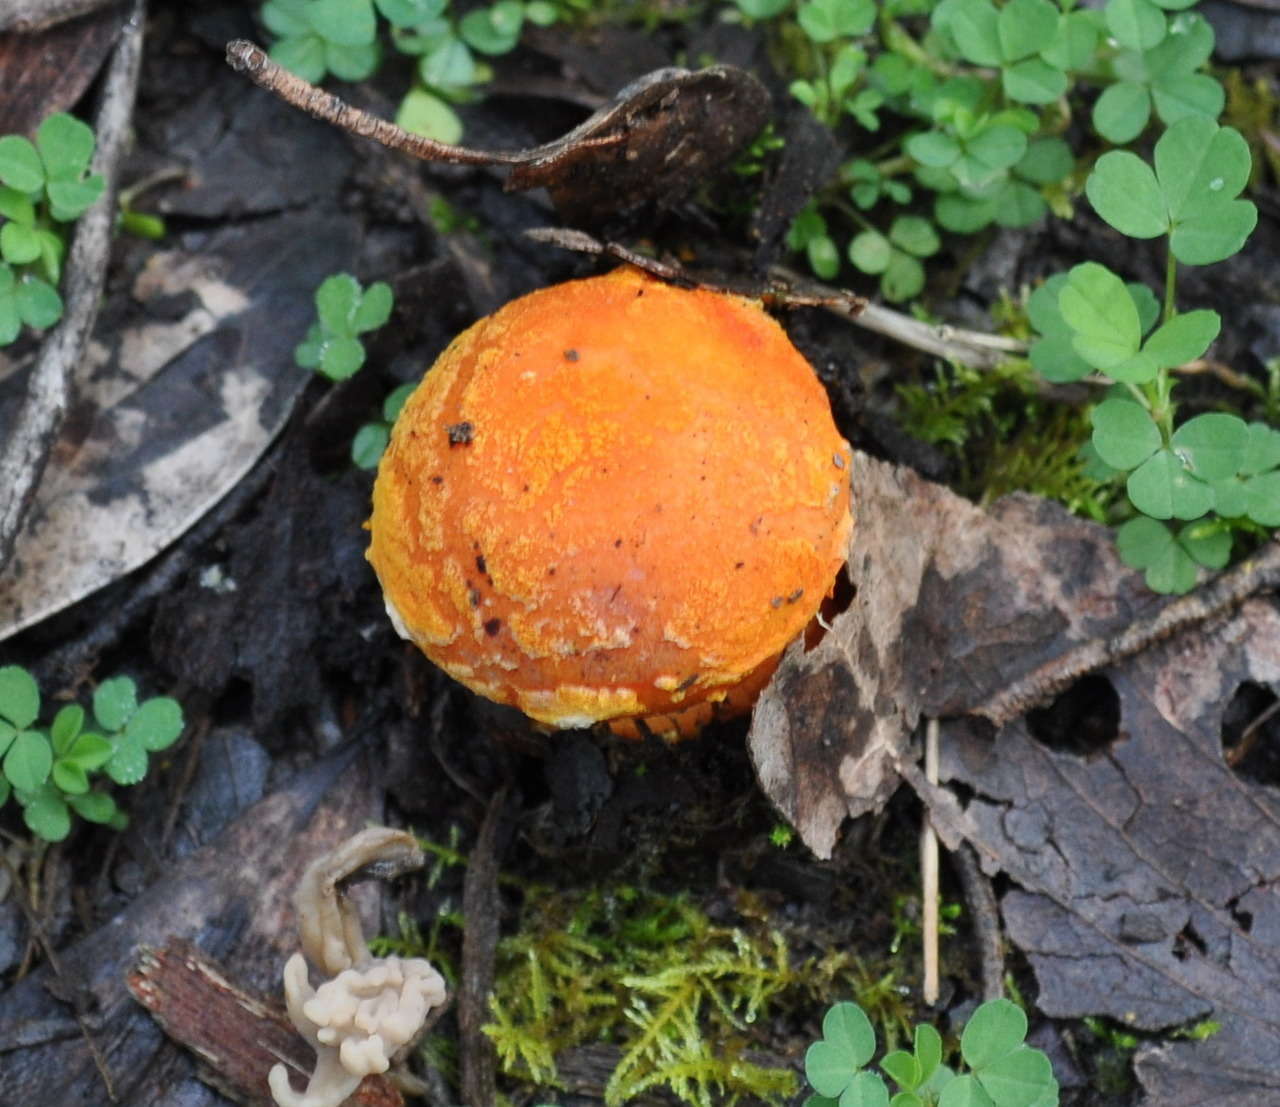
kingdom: Fungi
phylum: Basidiomycota
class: Agaricomycetes
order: Agaricales
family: Amanitaceae
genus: Amanita
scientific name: Amanita xanthocephala
